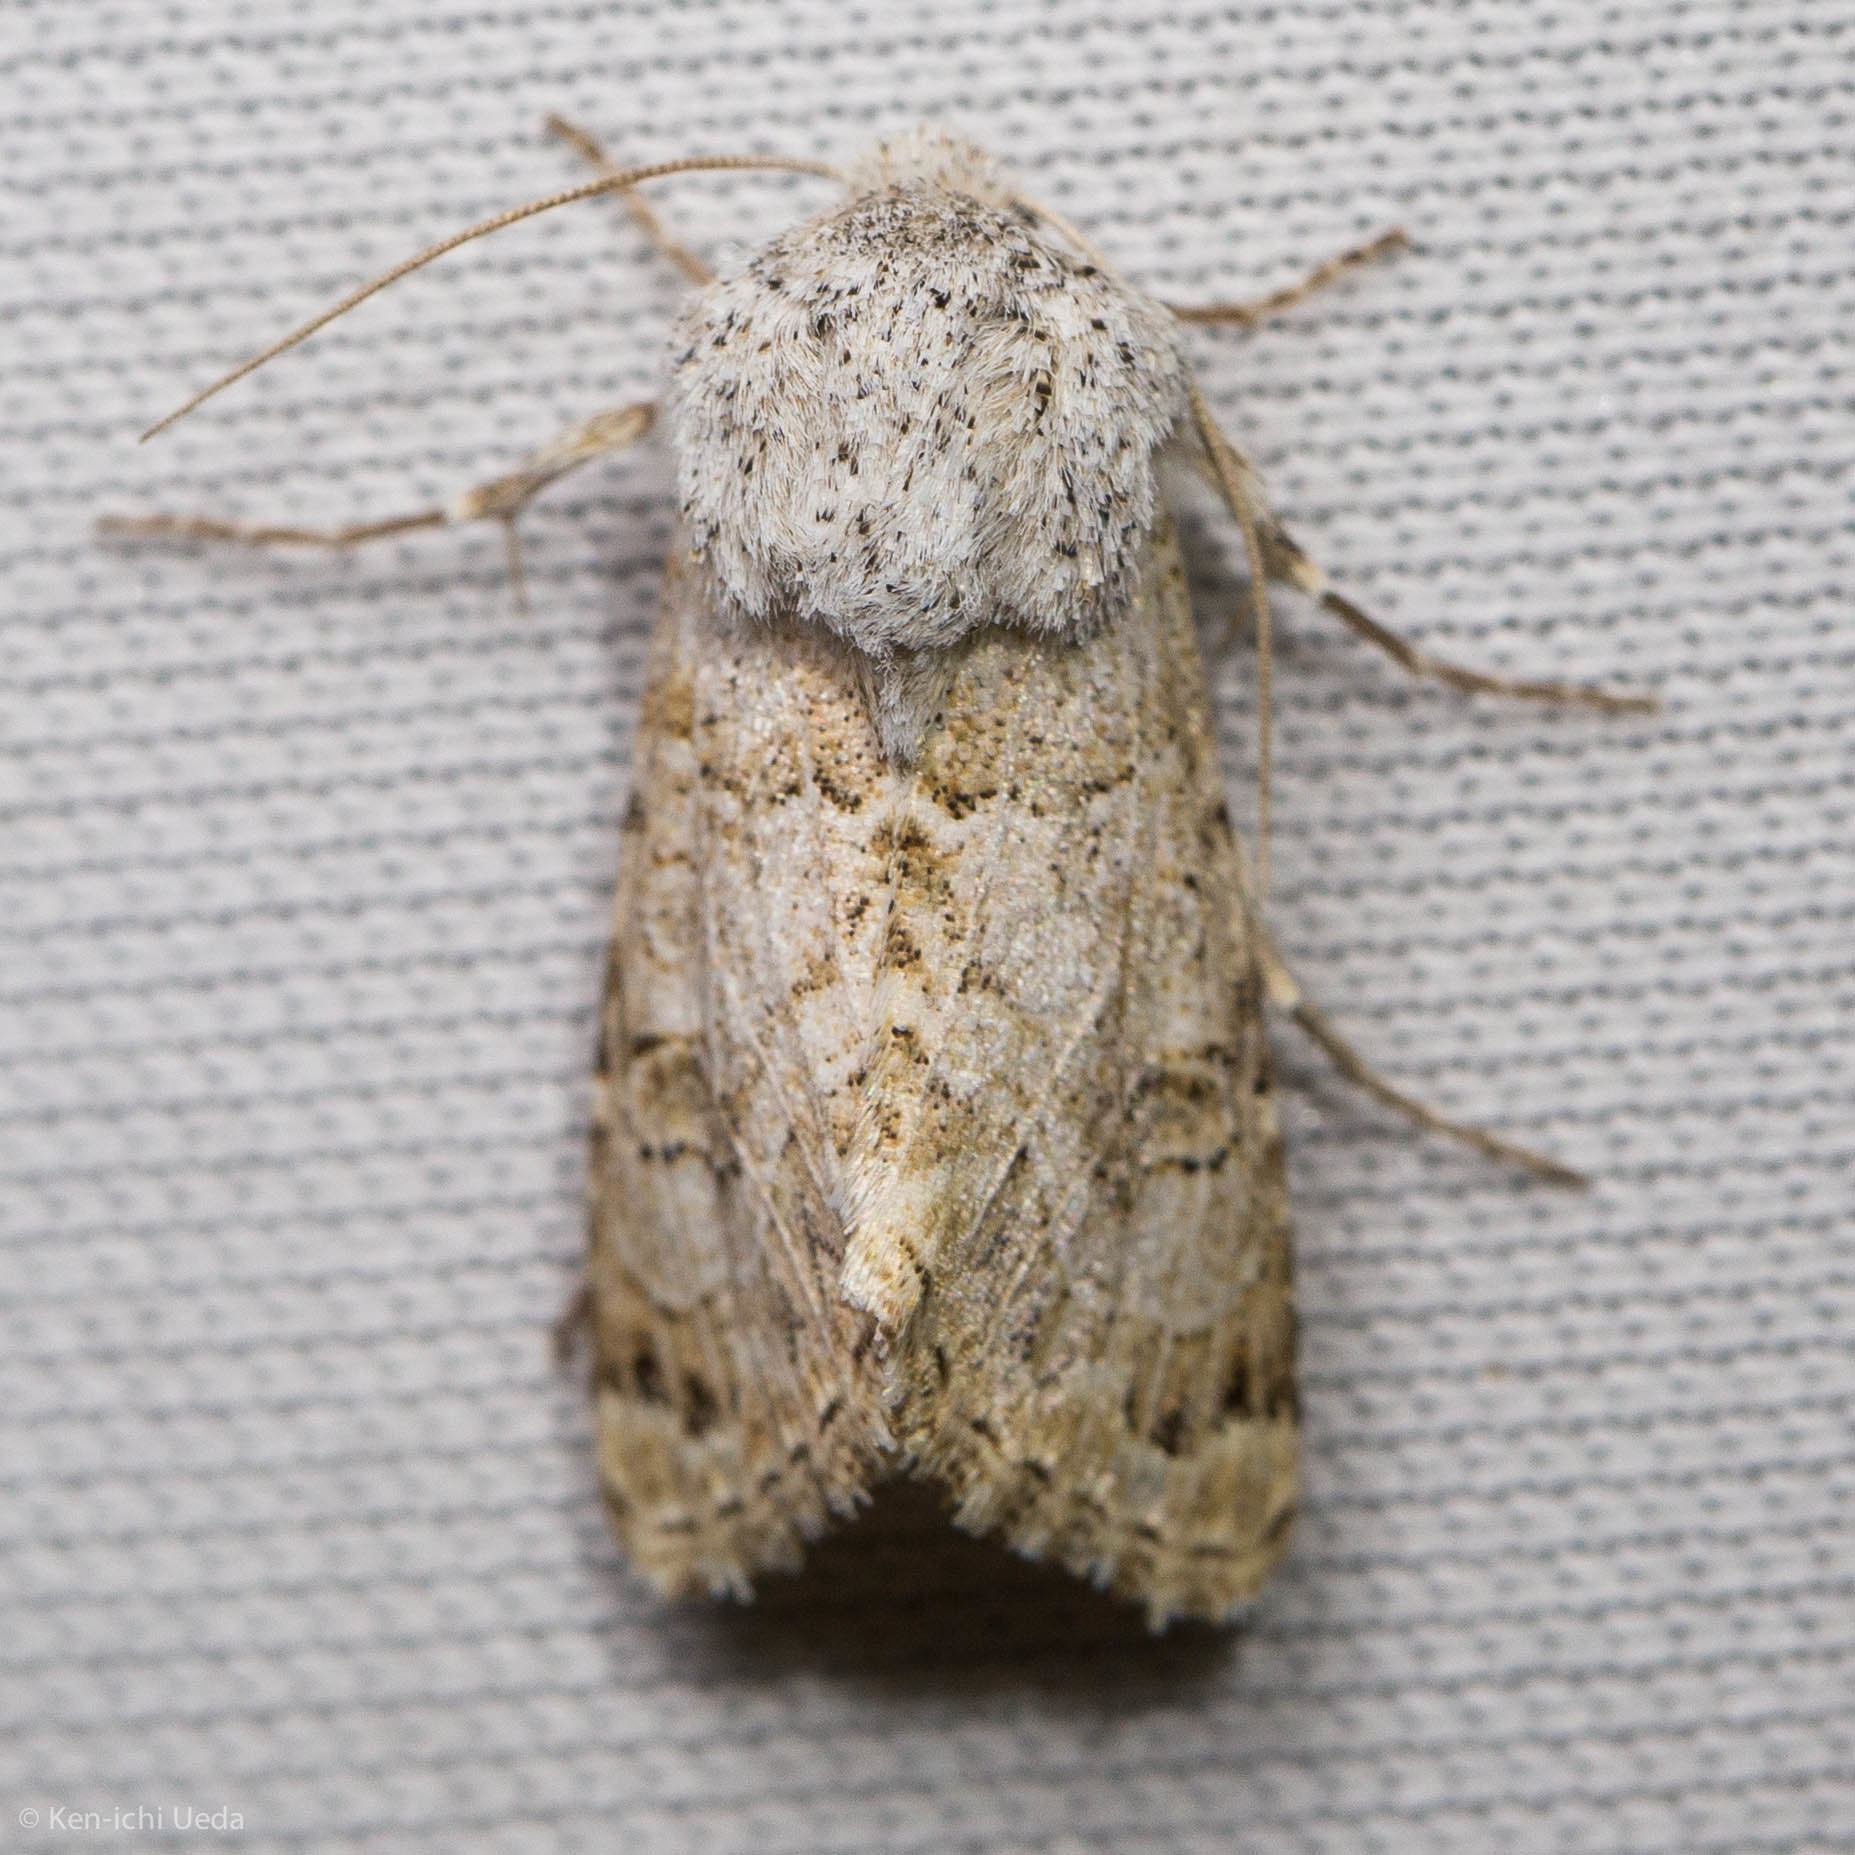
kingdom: Animalia
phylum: Arthropoda
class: Insecta
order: Lepidoptera
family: Noctuidae
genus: Schinia
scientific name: Schinia deserticola
